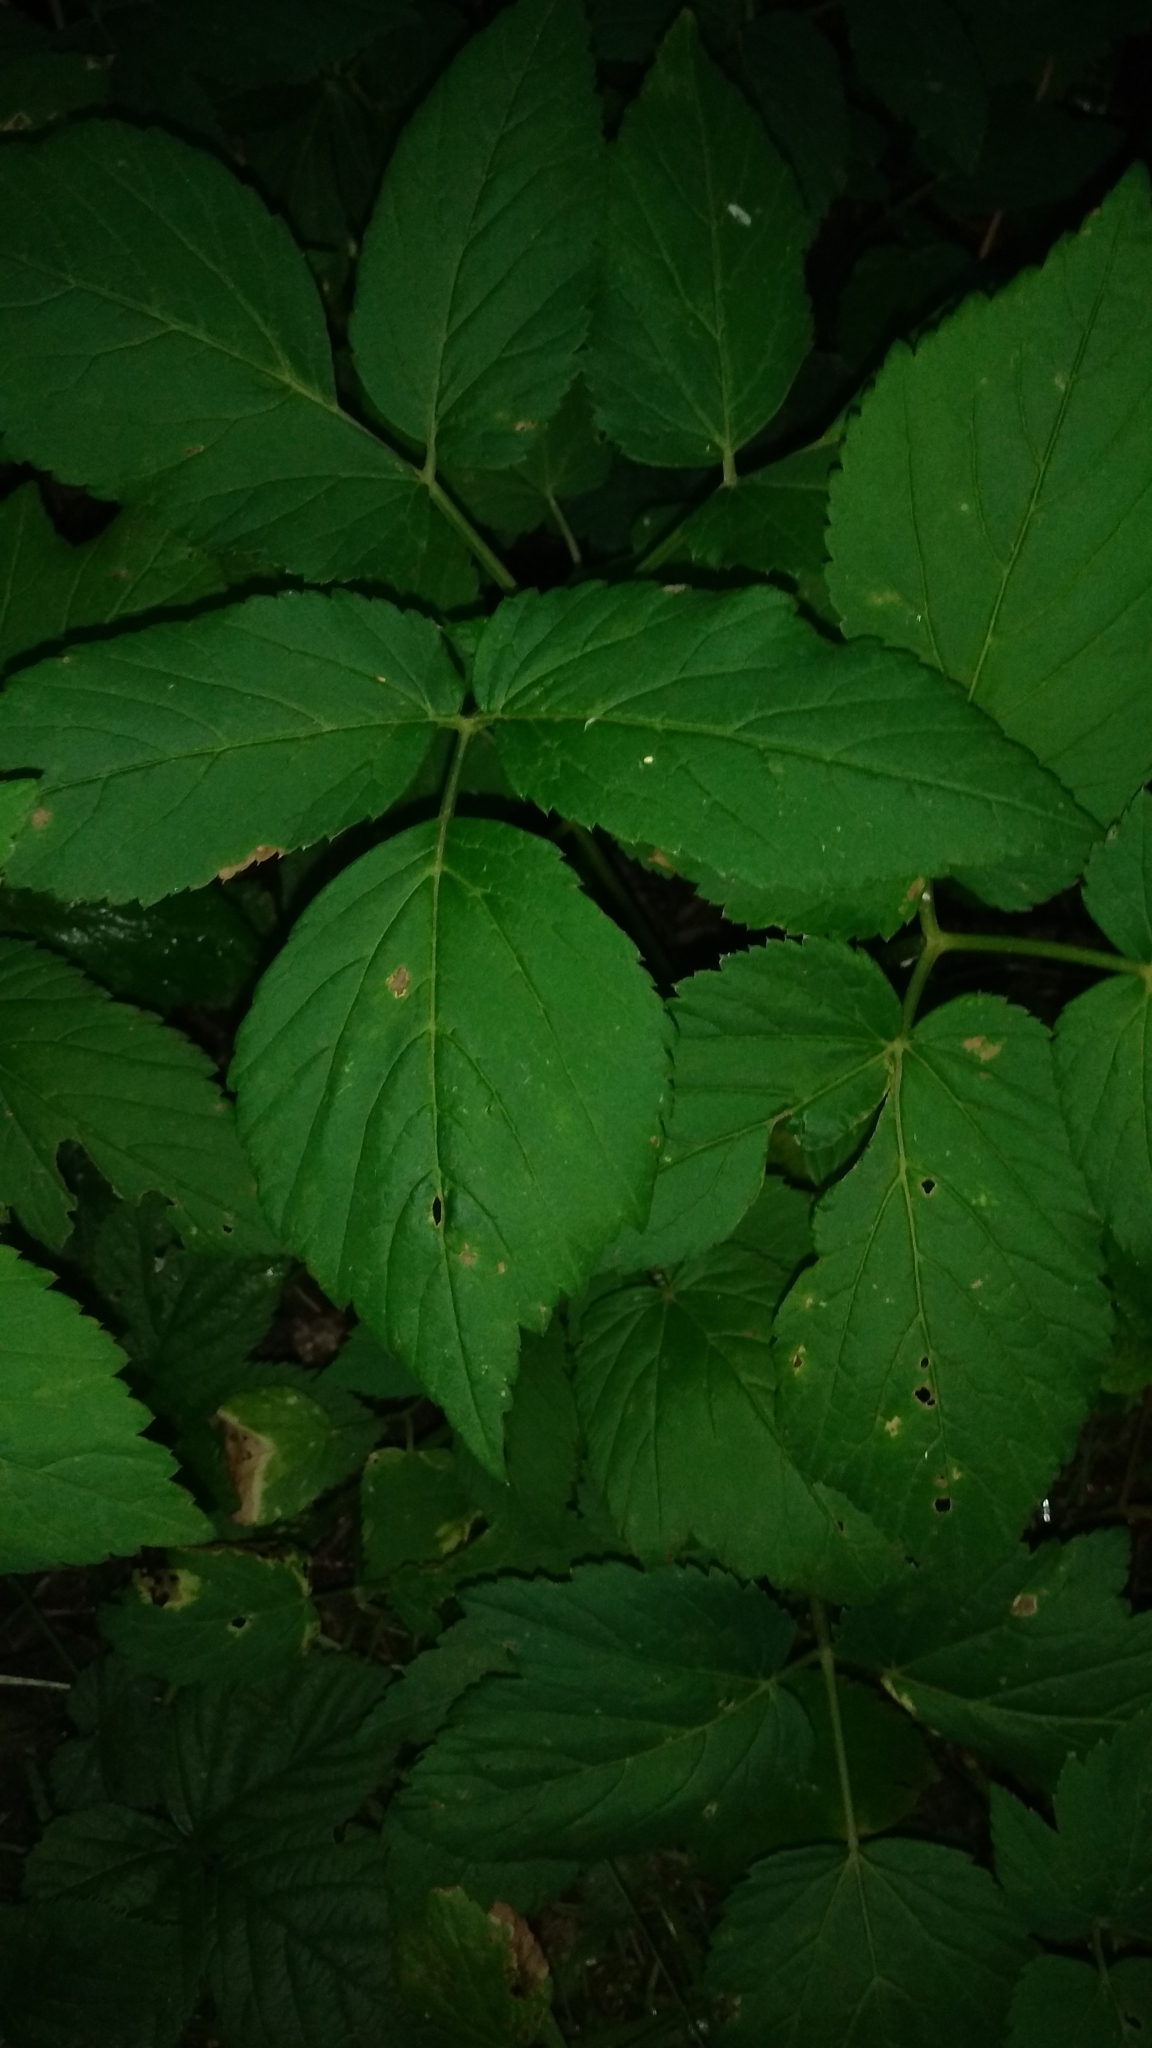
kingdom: Plantae
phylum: Tracheophyta
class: Magnoliopsida
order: Apiales
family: Apiaceae
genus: Aegopodium
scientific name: Aegopodium podagraria
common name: Ground-elder
